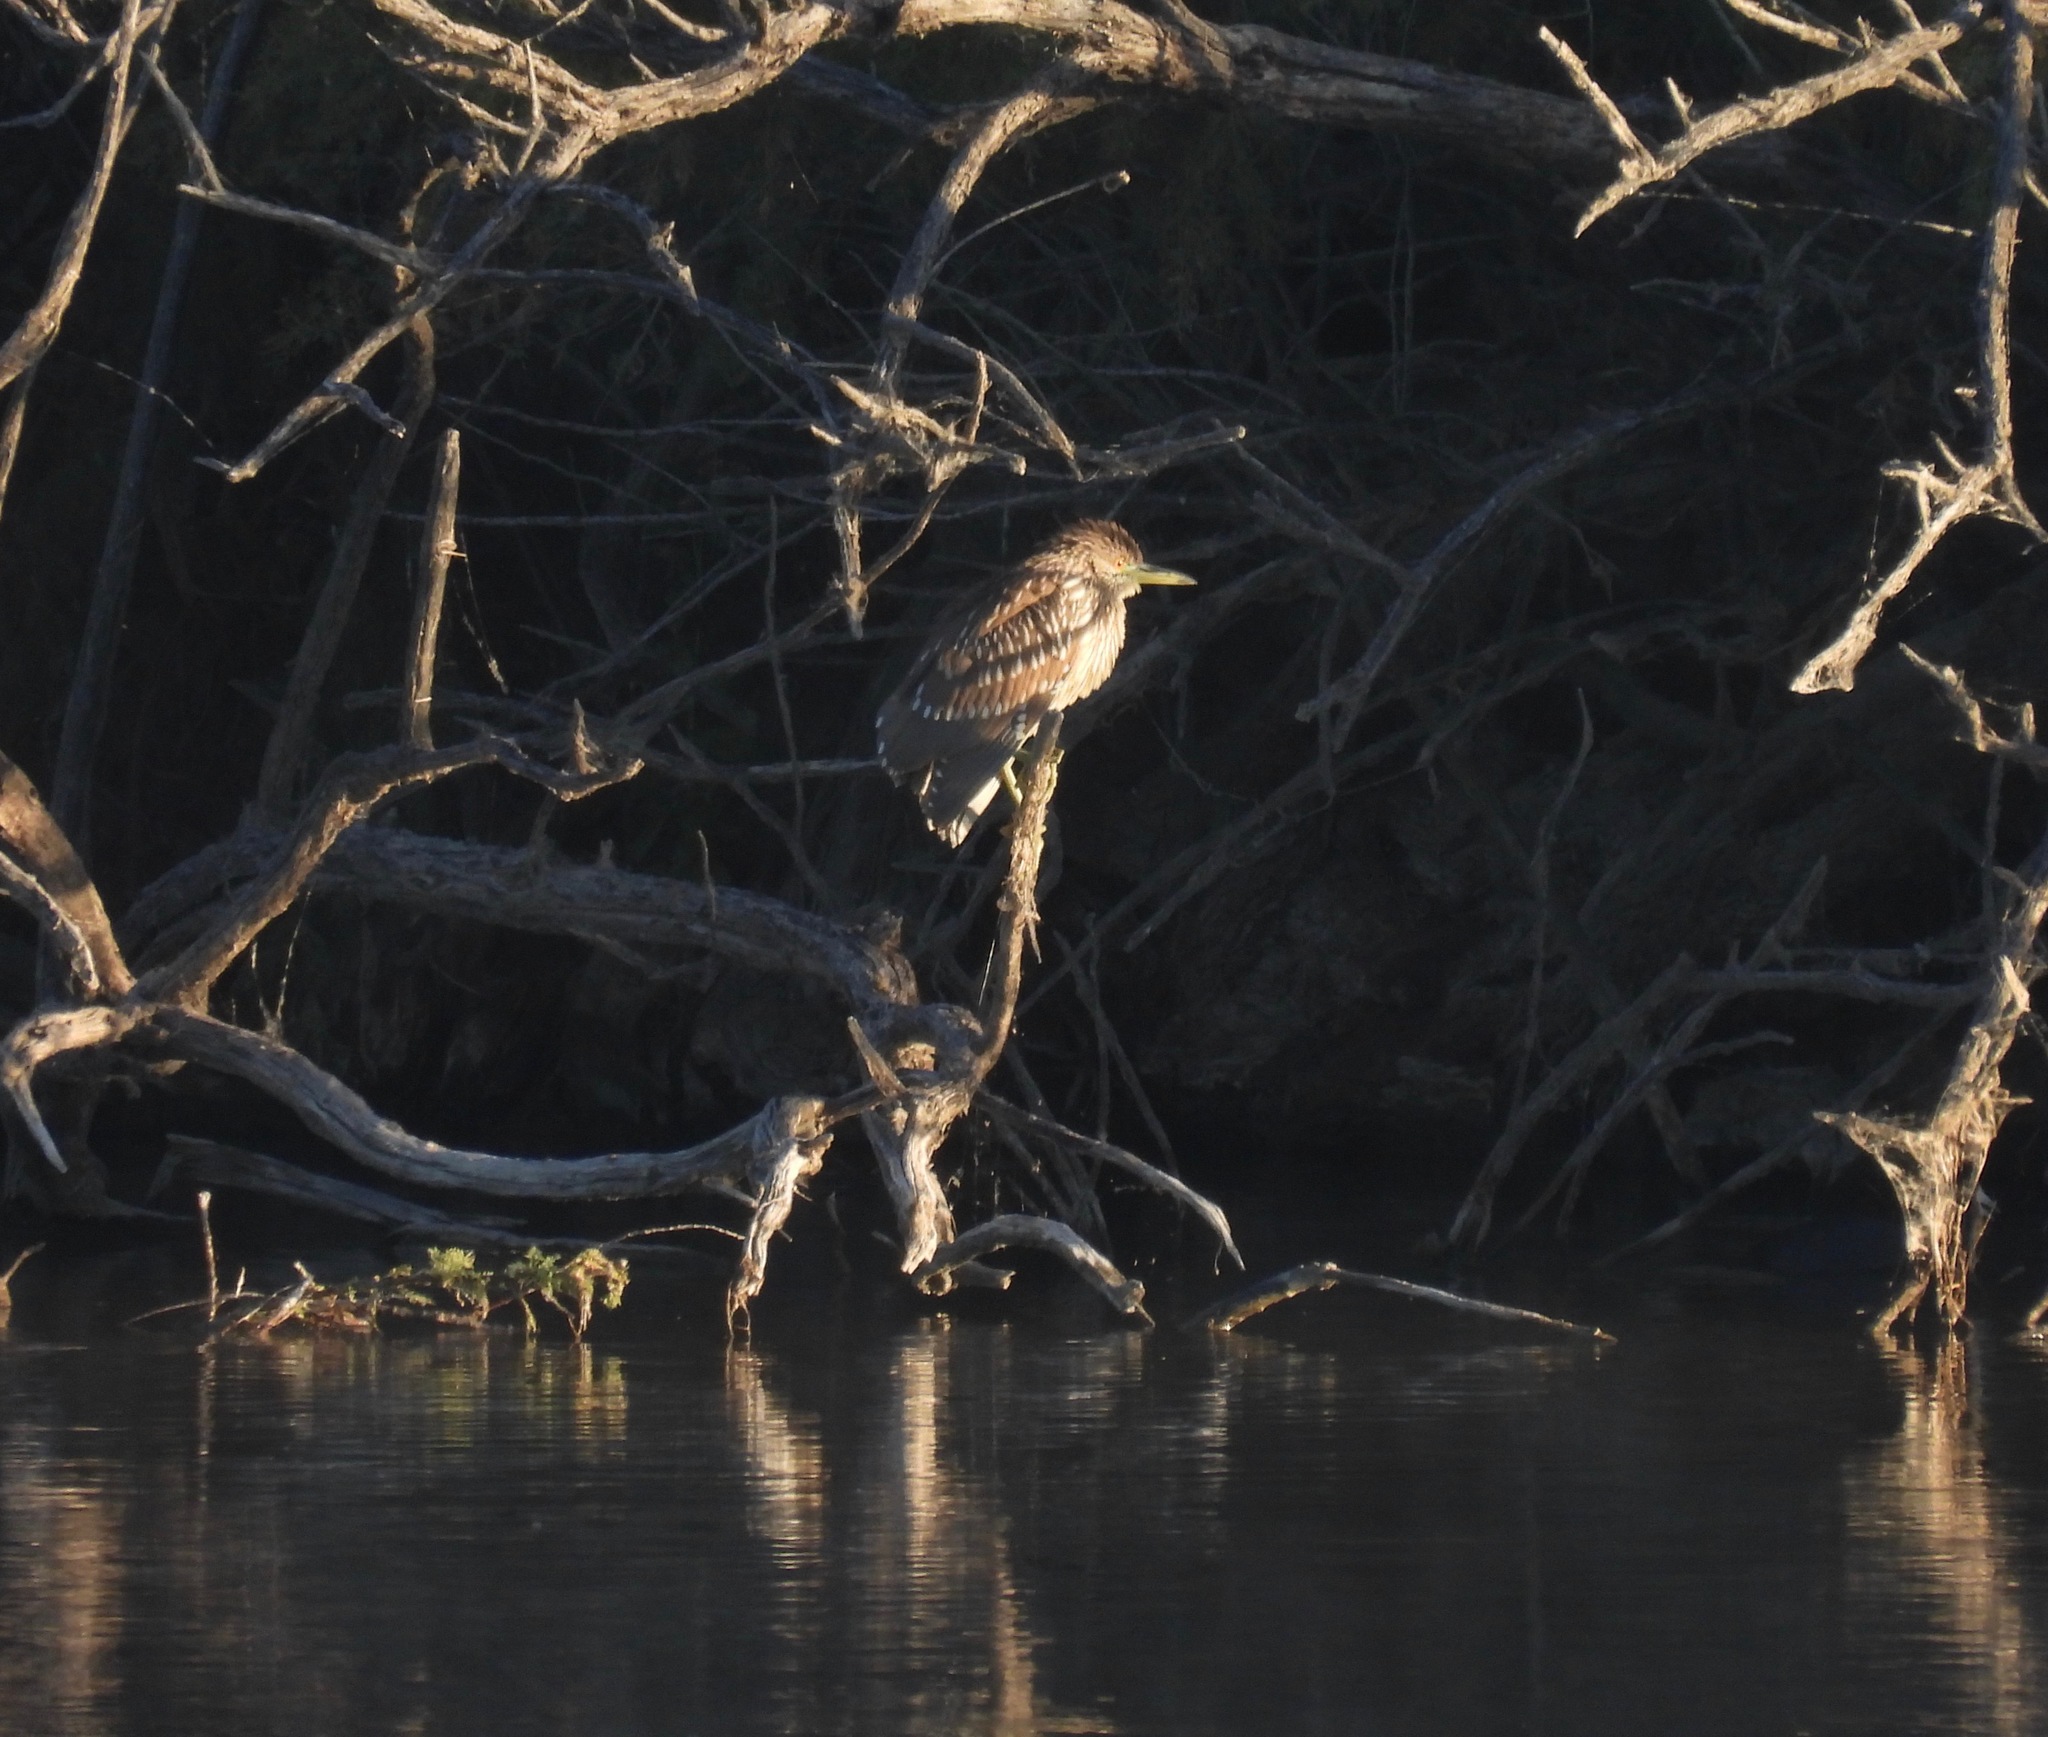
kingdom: Animalia
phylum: Chordata
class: Aves
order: Pelecaniformes
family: Ardeidae
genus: Nycticorax
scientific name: Nycticorax nycticorax
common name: Black-crowned night heron
